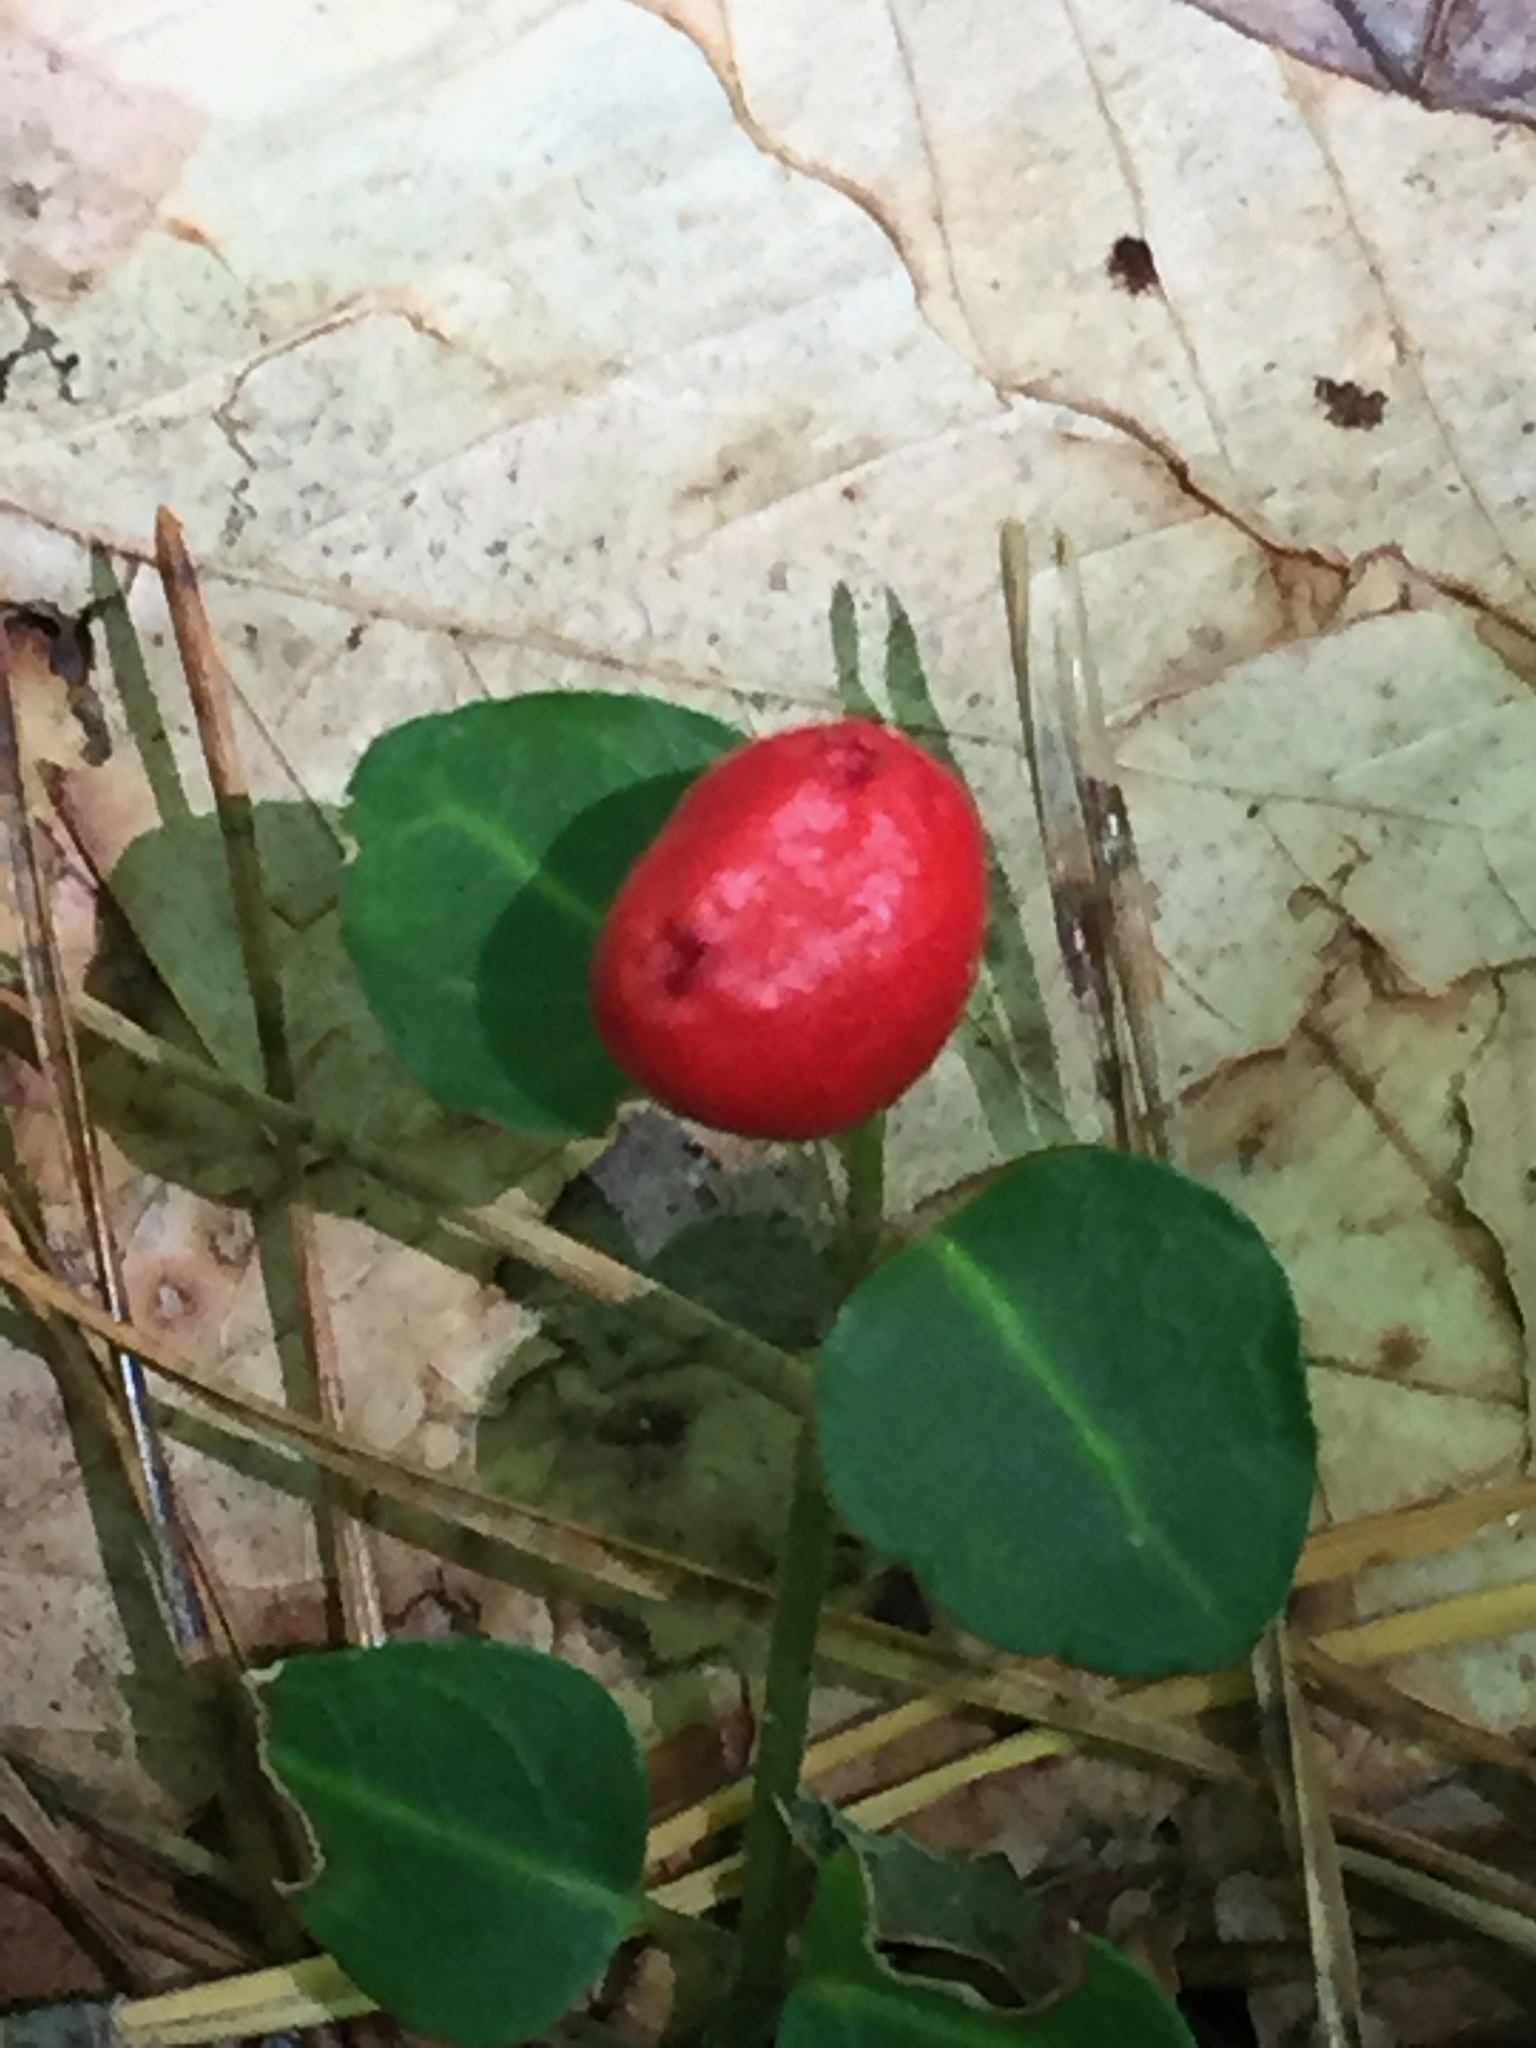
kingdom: Plantae
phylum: Tracheophyta
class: Magnoliopsida
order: Gentianales
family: Rubiaceae
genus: Mitchella
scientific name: Mitchella repens
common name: Partridge-berry
